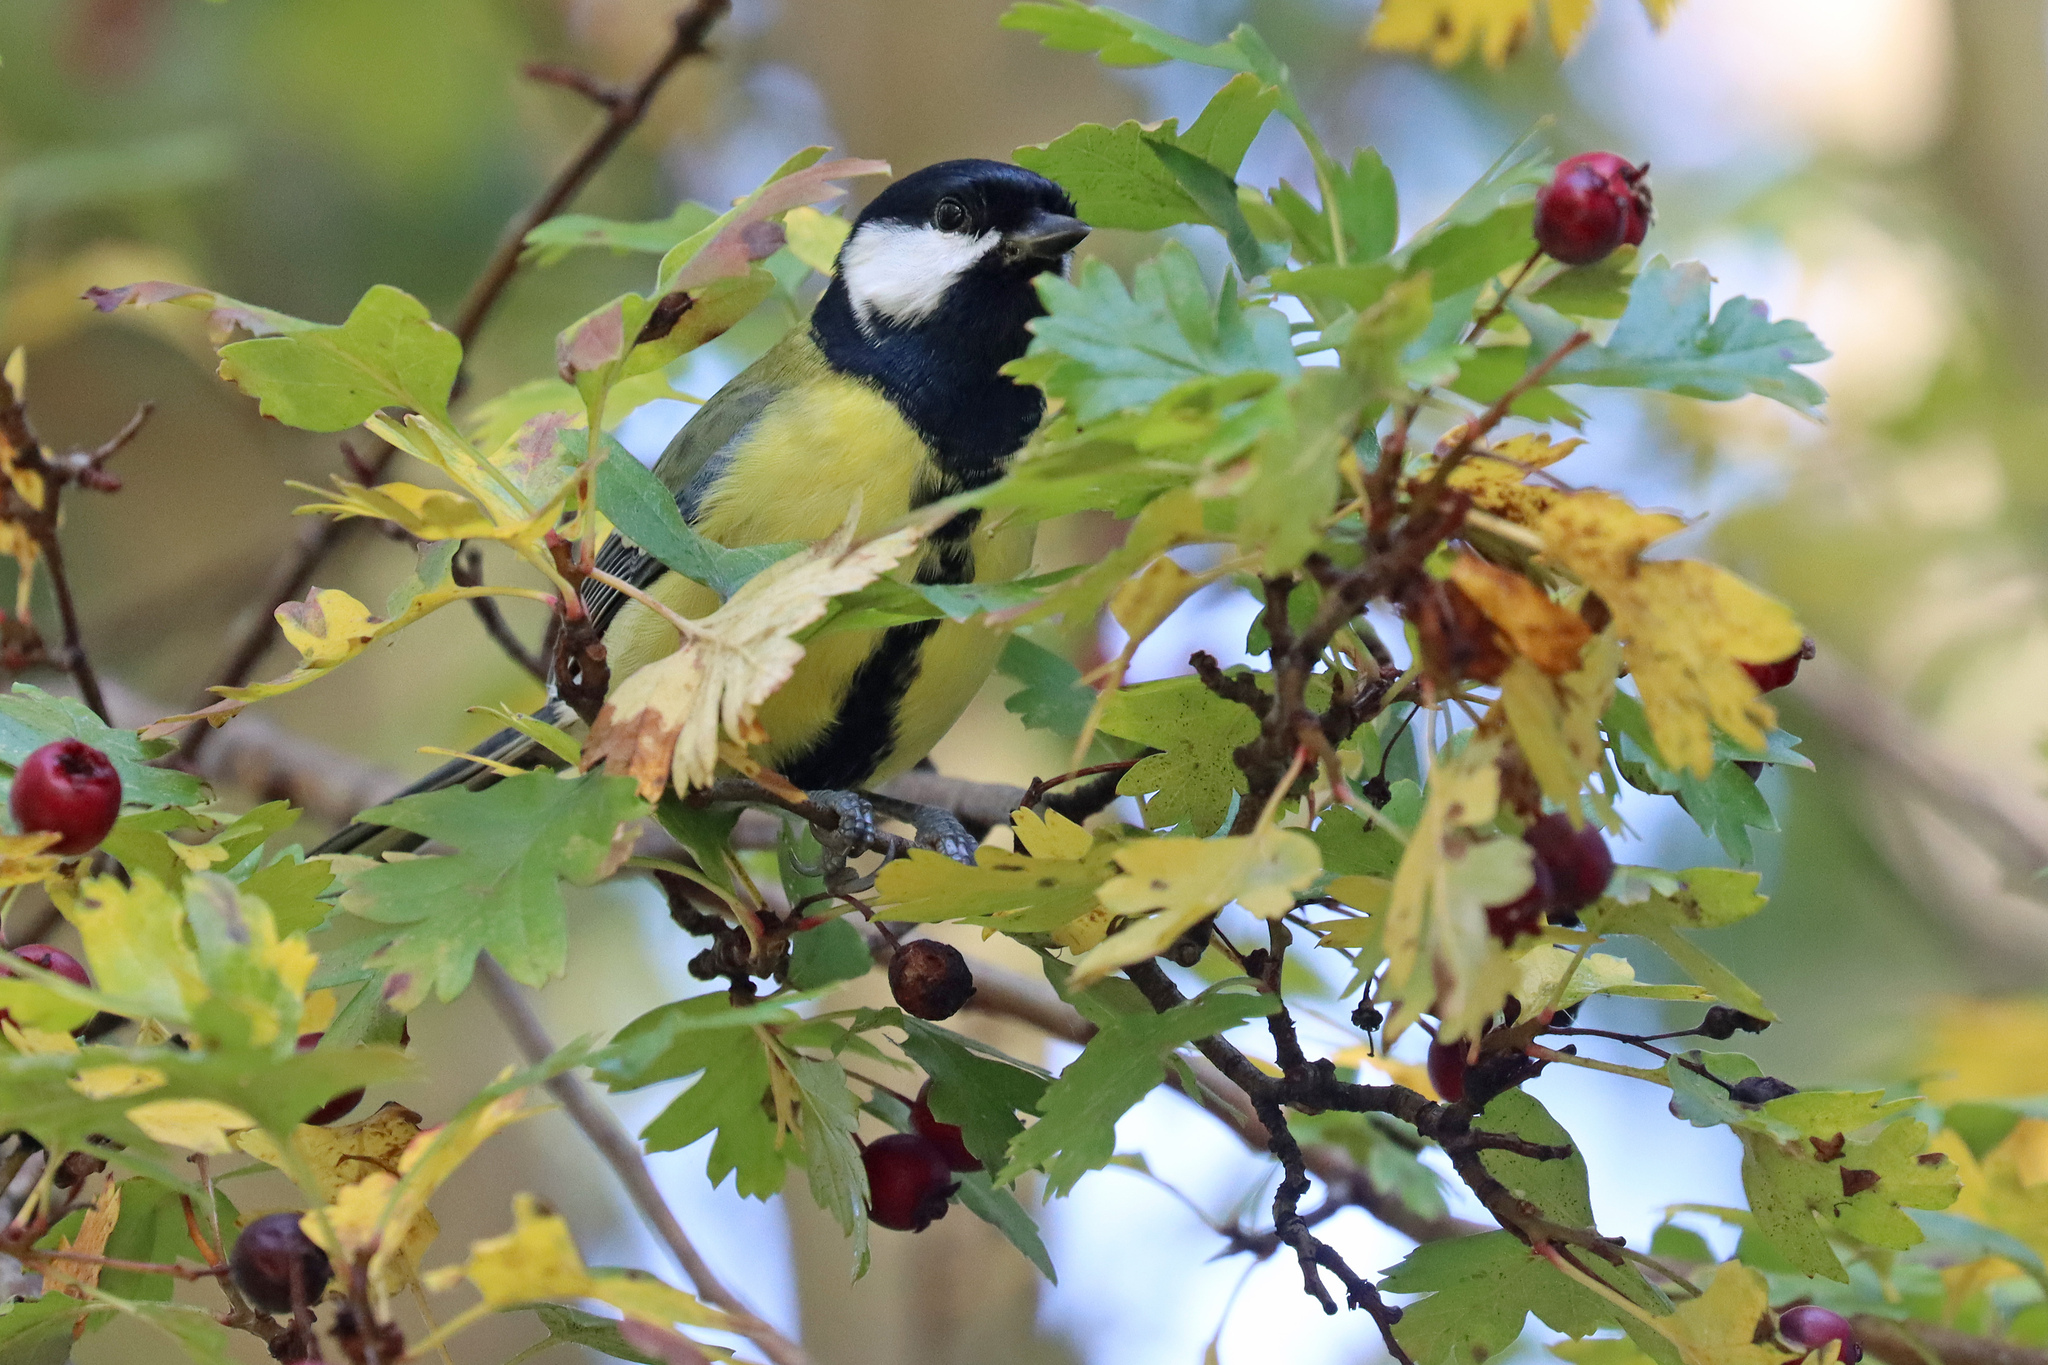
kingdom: Animalia
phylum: Chordata
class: Aves
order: Passeriformes
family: Paridae
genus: Parus
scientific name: Parus major
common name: Great tit
